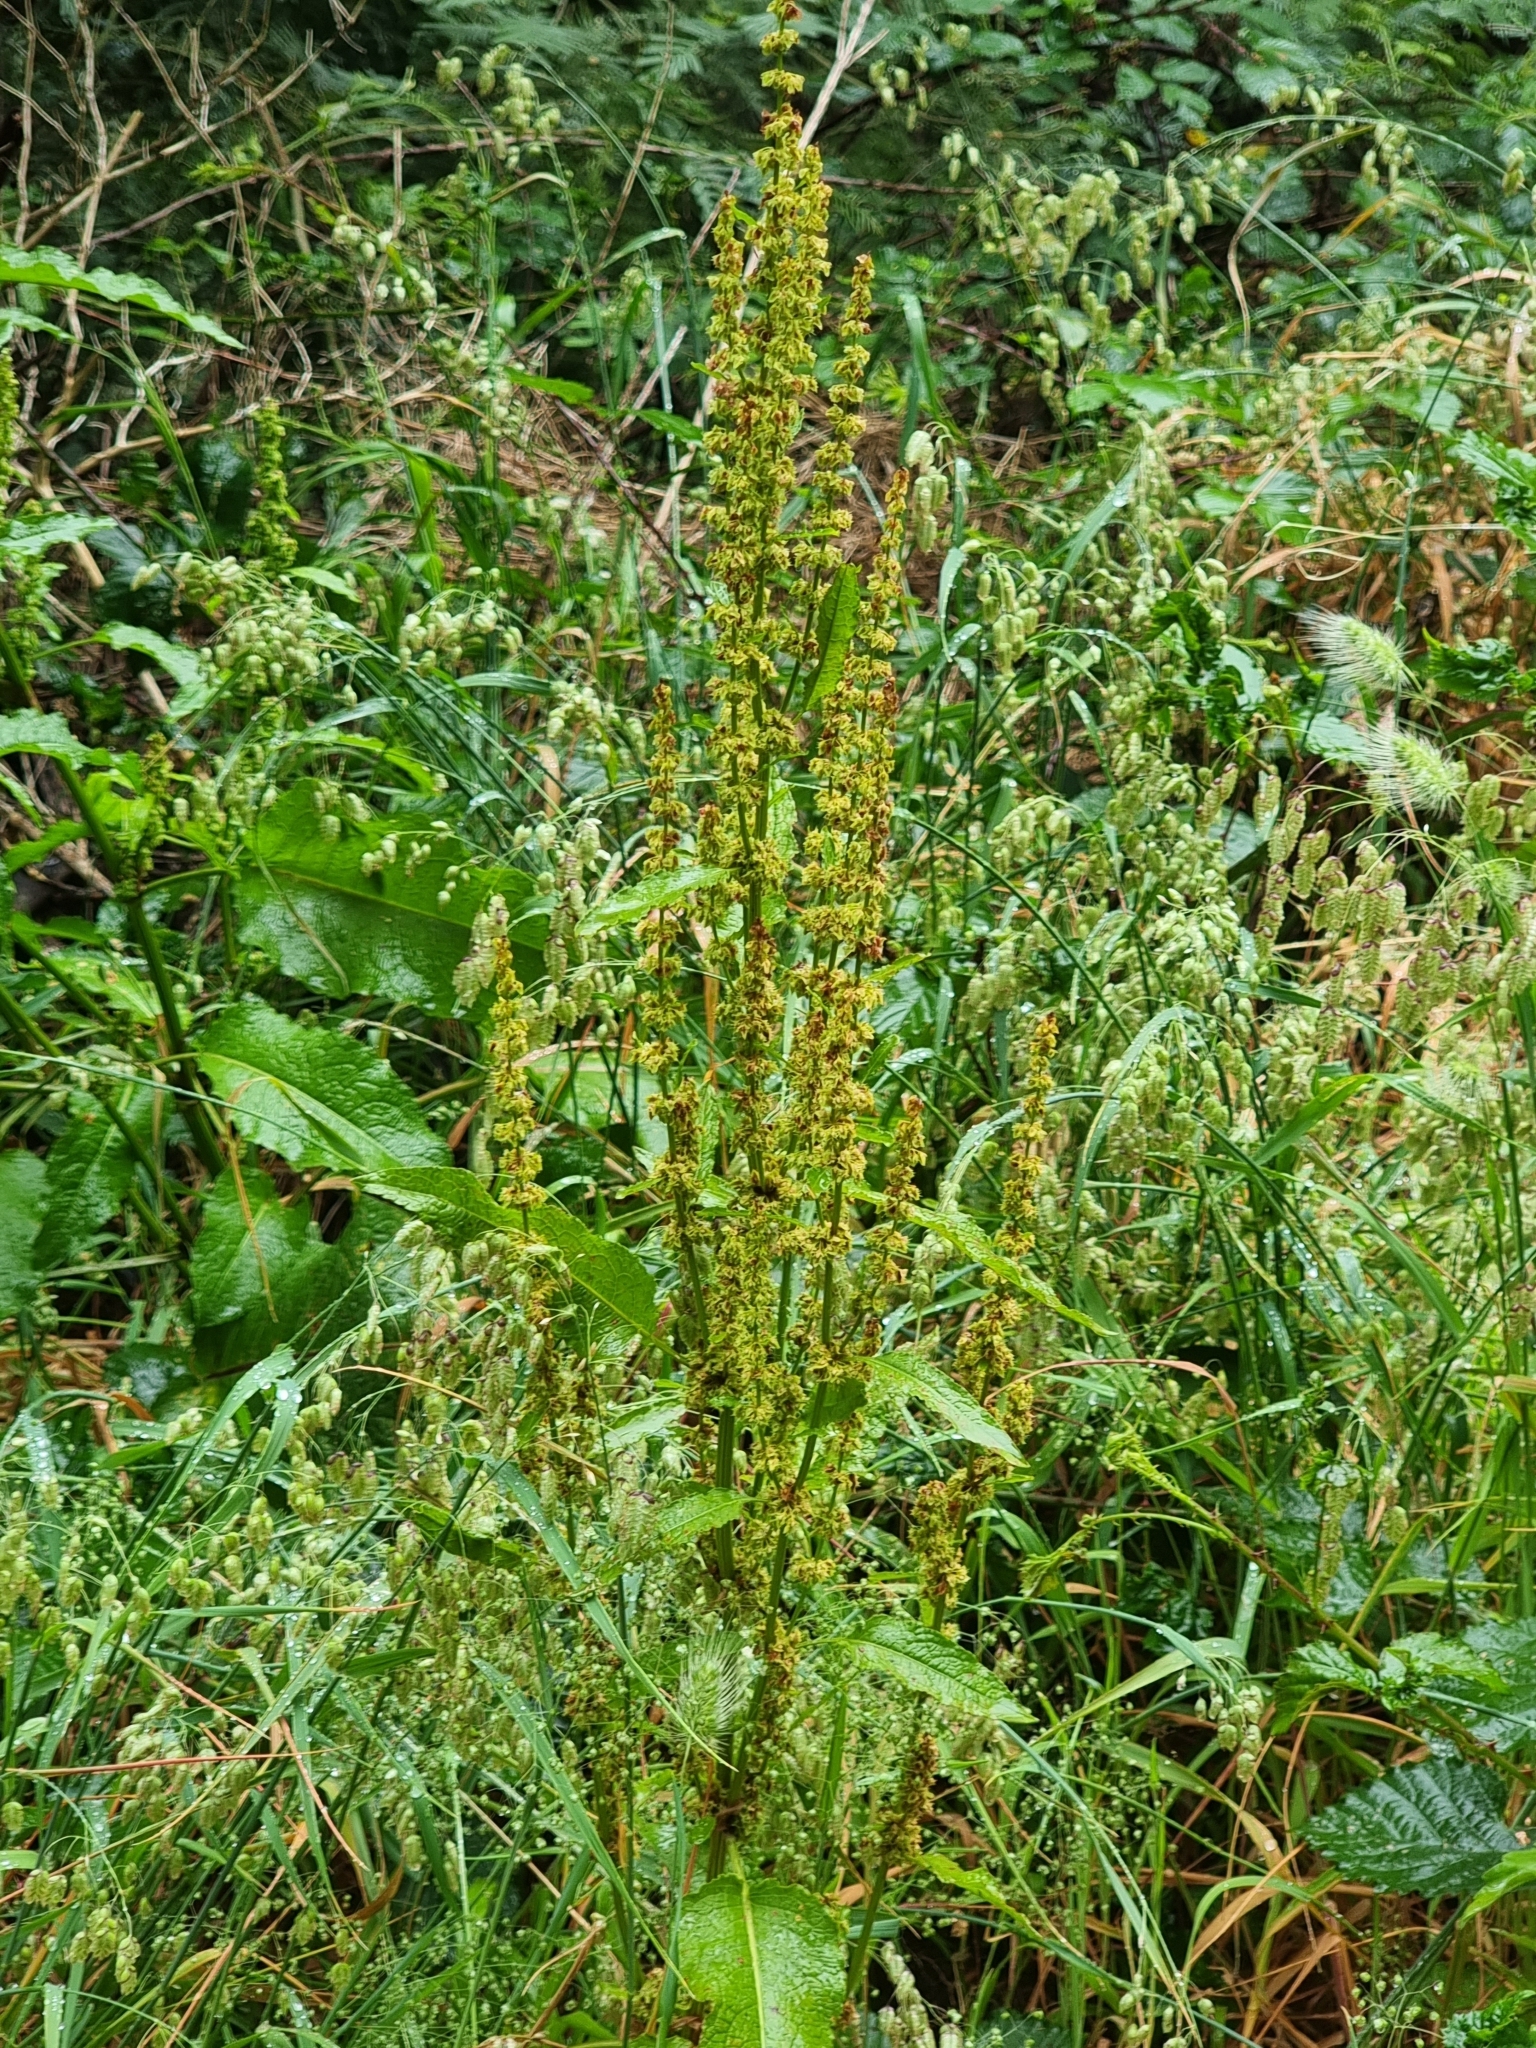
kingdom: Plantae
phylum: Tracheophyta
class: Magnoliopsida
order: Caryophyllales
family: Polygonaceae
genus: Rumex
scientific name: Rumex obtusifolius
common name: Bitter dock
